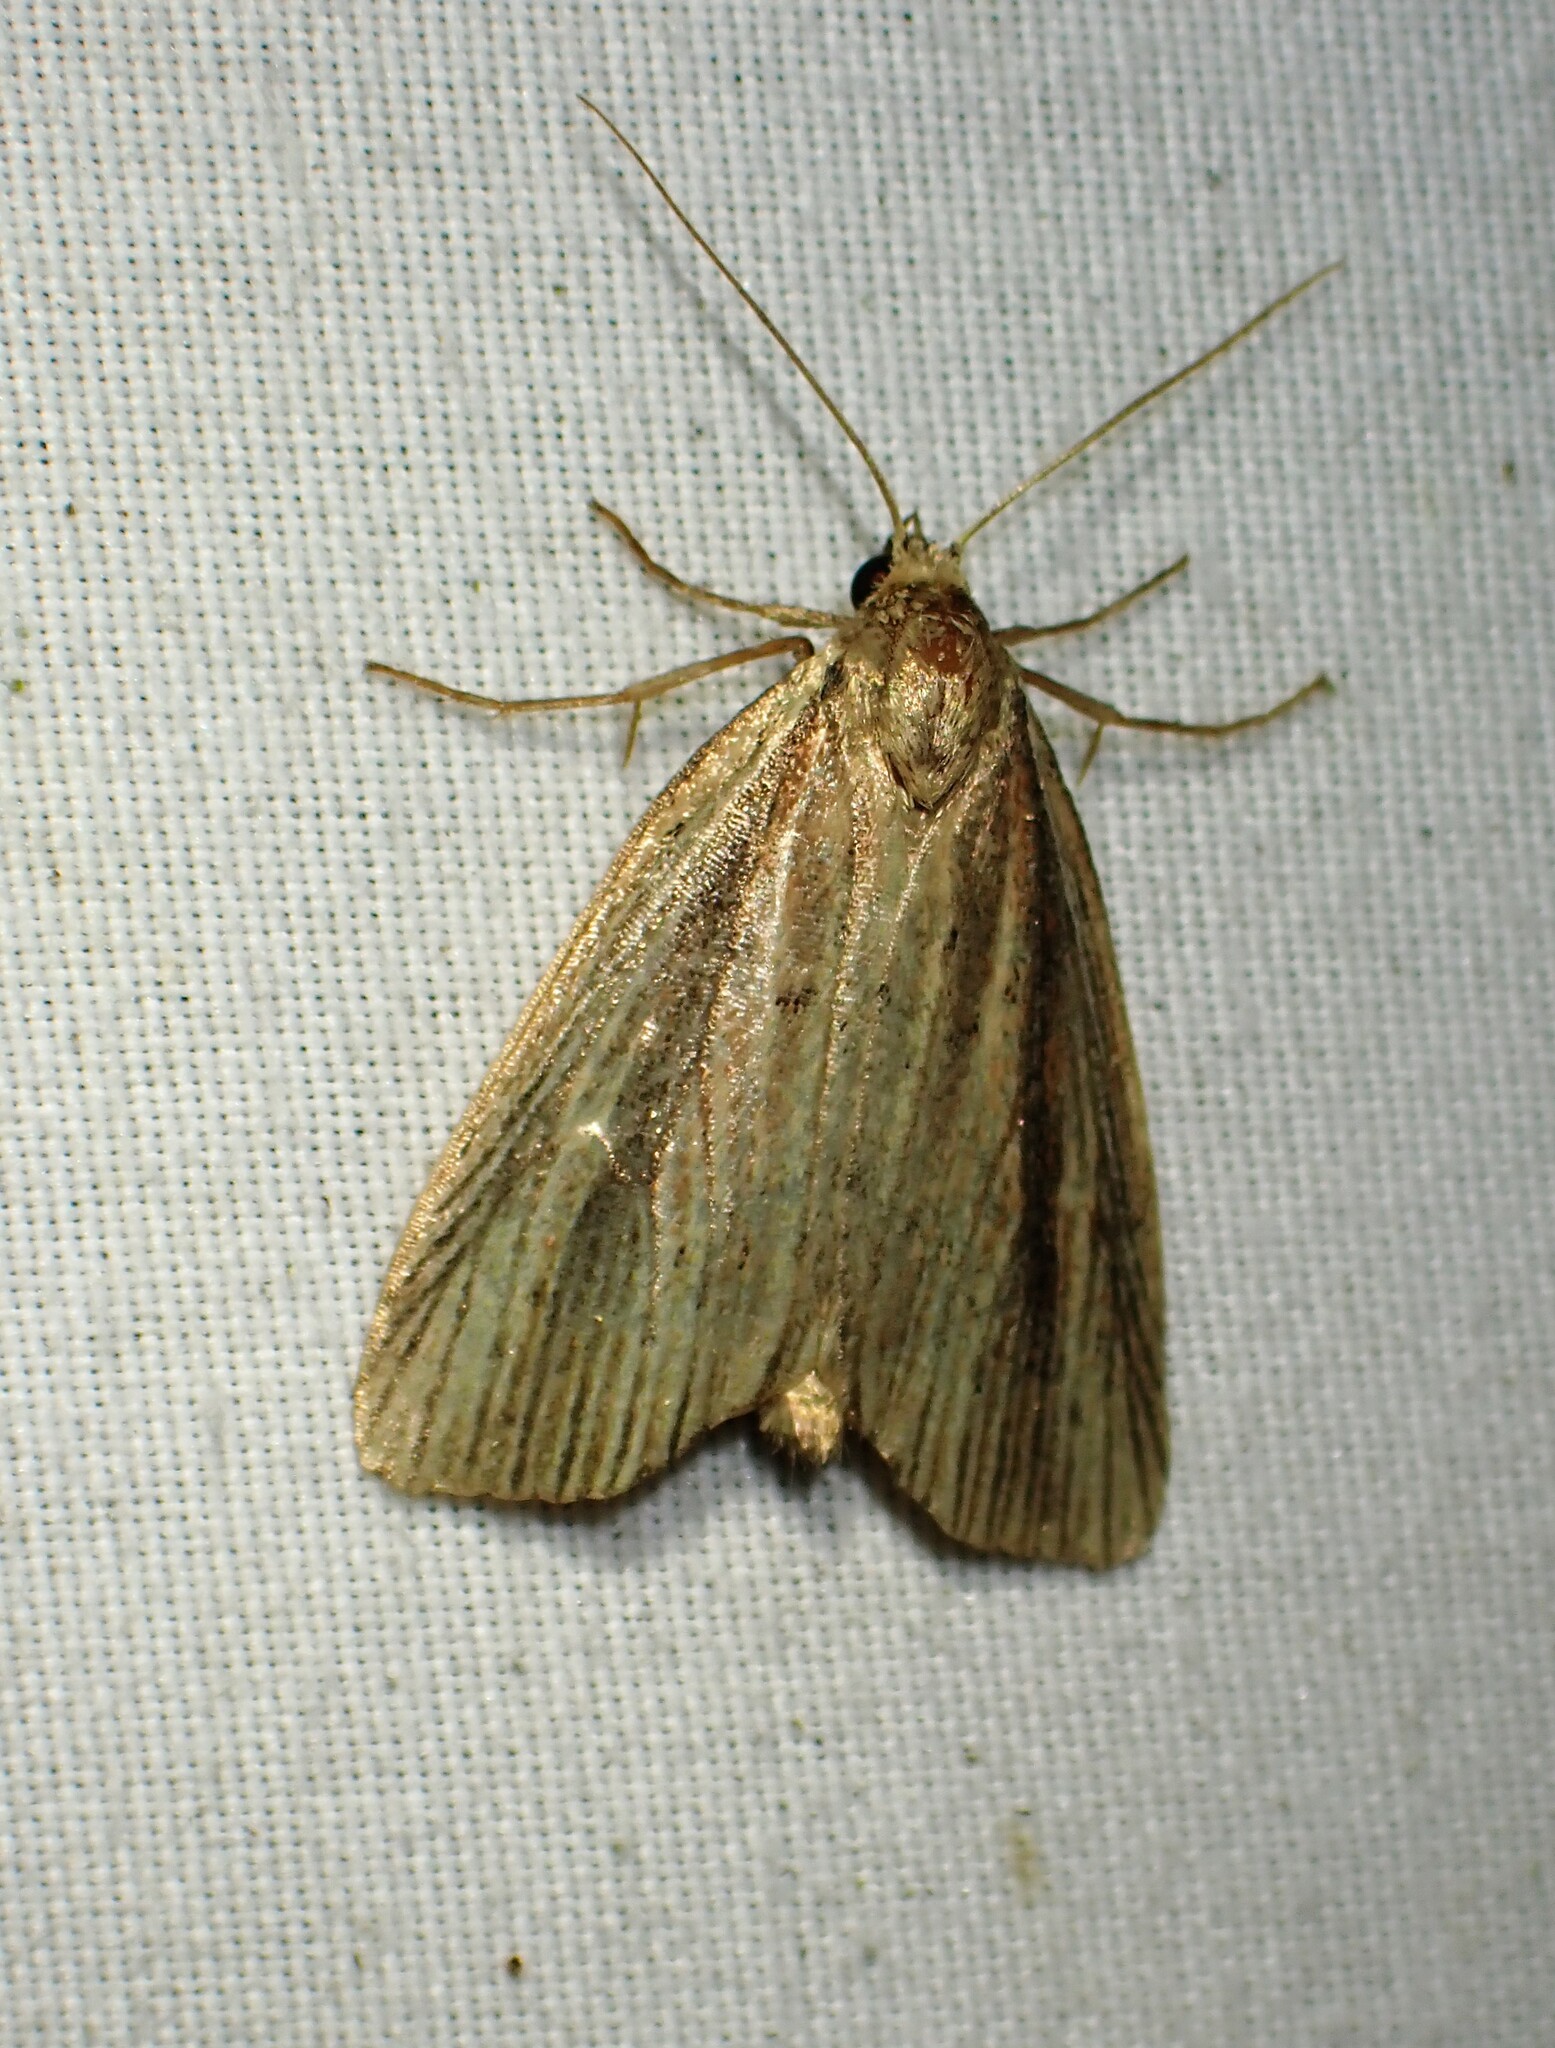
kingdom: Animalia
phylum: Arthropoda
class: Insecta
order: Lepidoptera
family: Noctuidae
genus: Photedes
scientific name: Photedes defecta
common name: Narrow-winged borer moth
